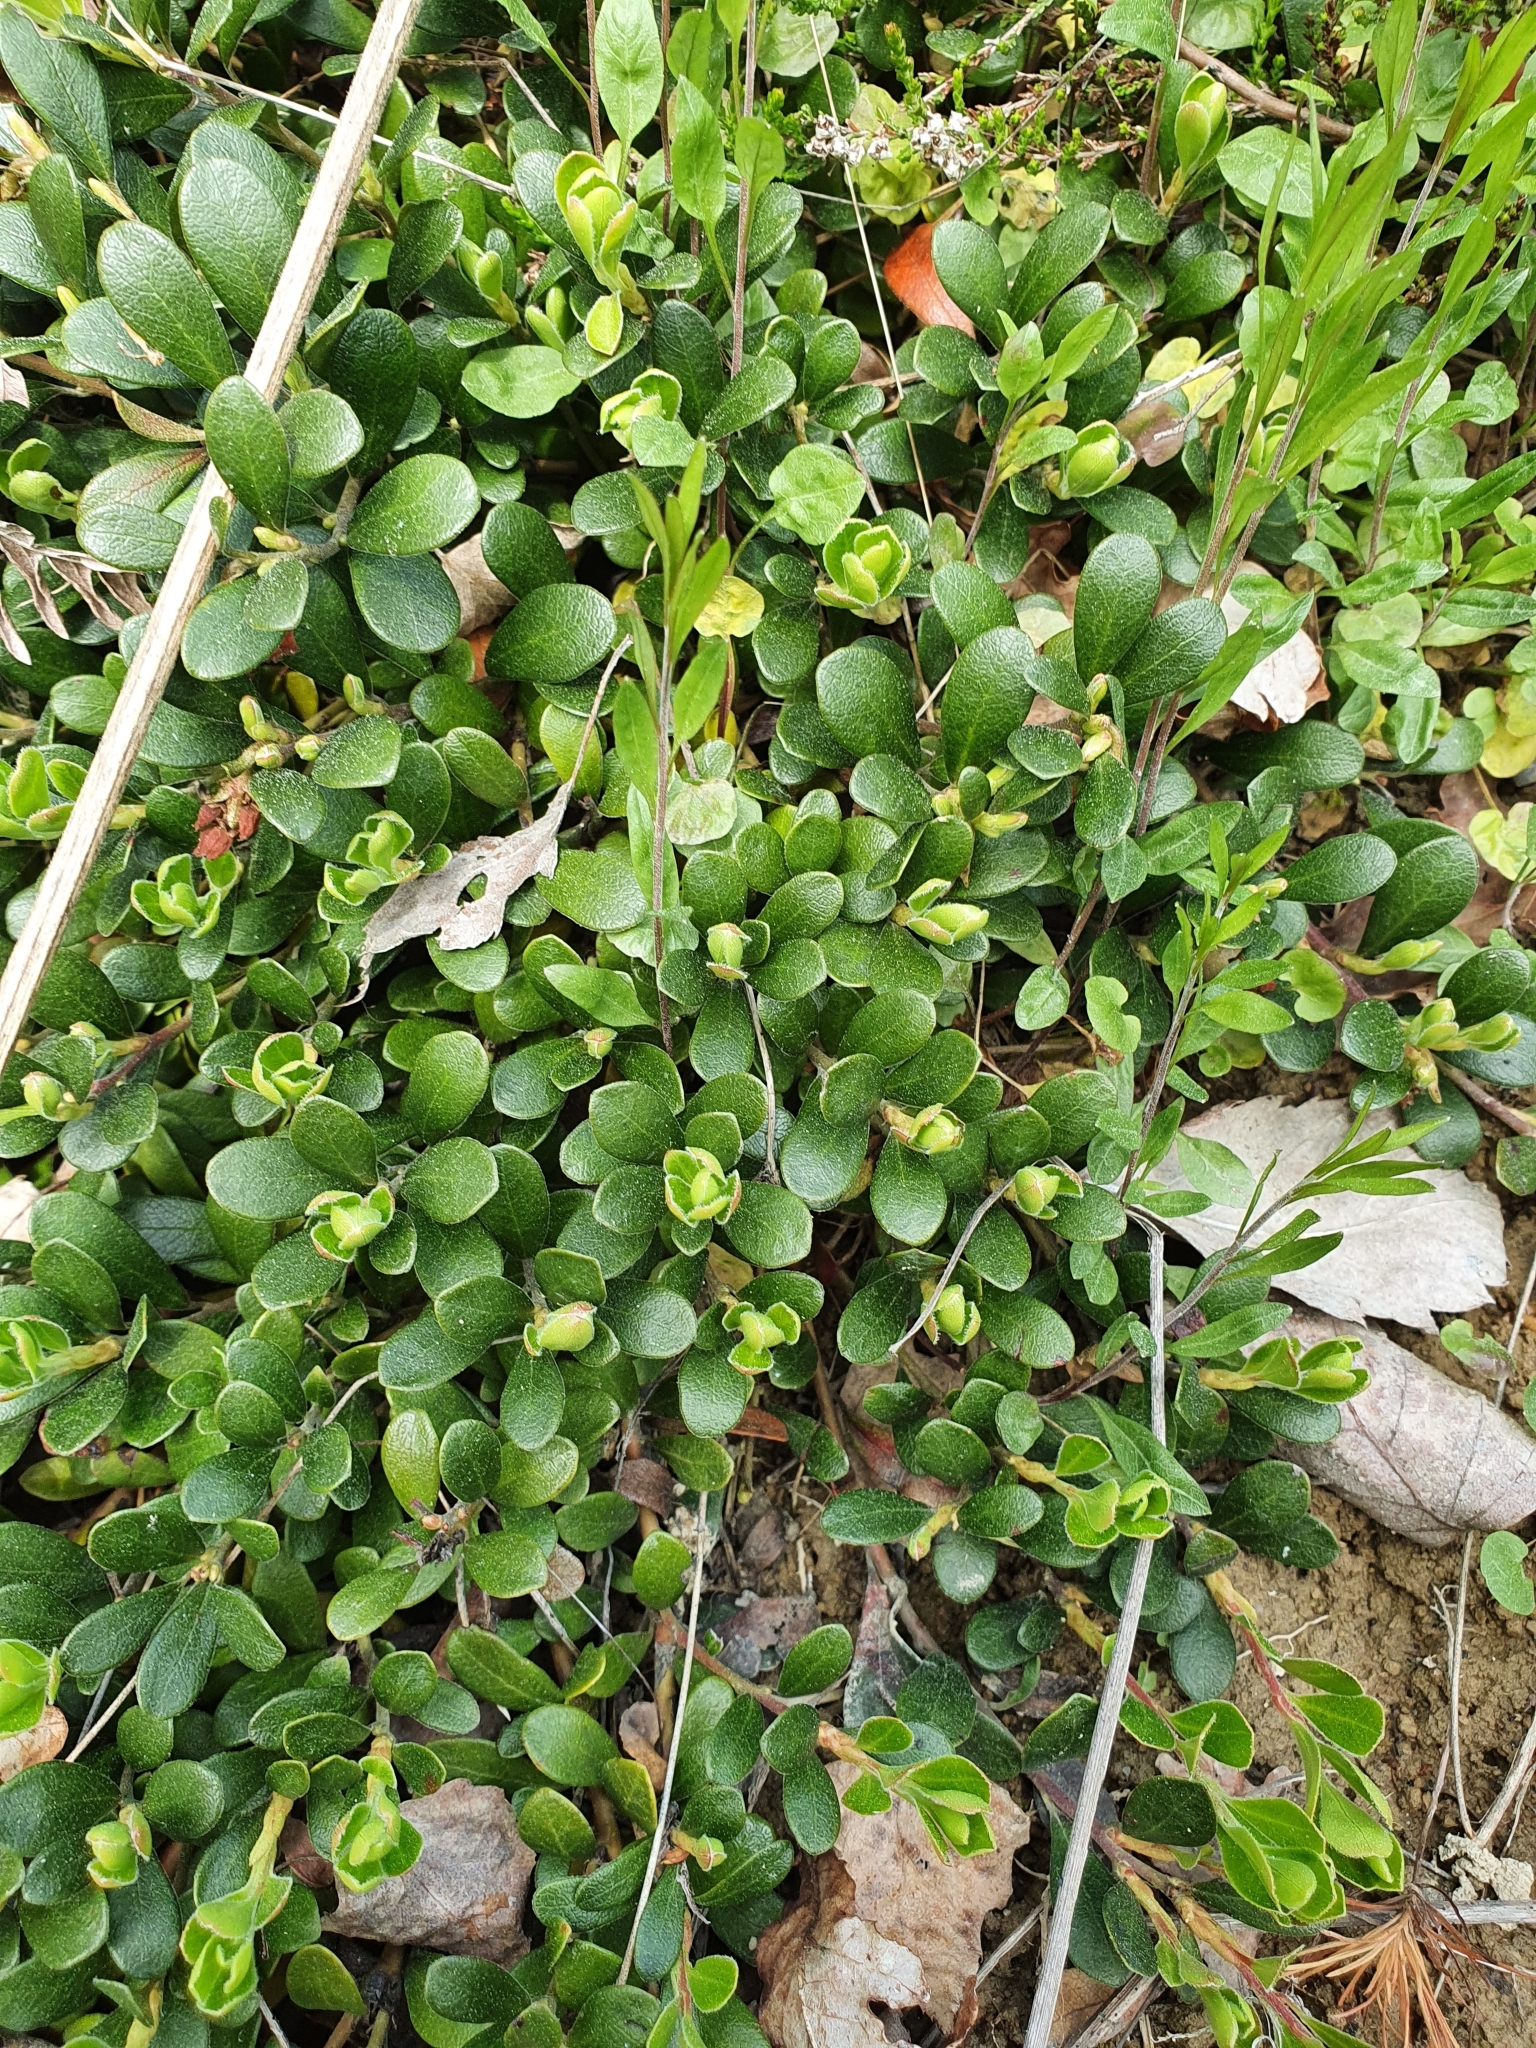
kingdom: Plantae
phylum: Tracheophyta
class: Magnoliopsida
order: Ericales
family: Ericaceae
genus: Arctostaphylos
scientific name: Arctostaphylos uva-ursi
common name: Bearberry
